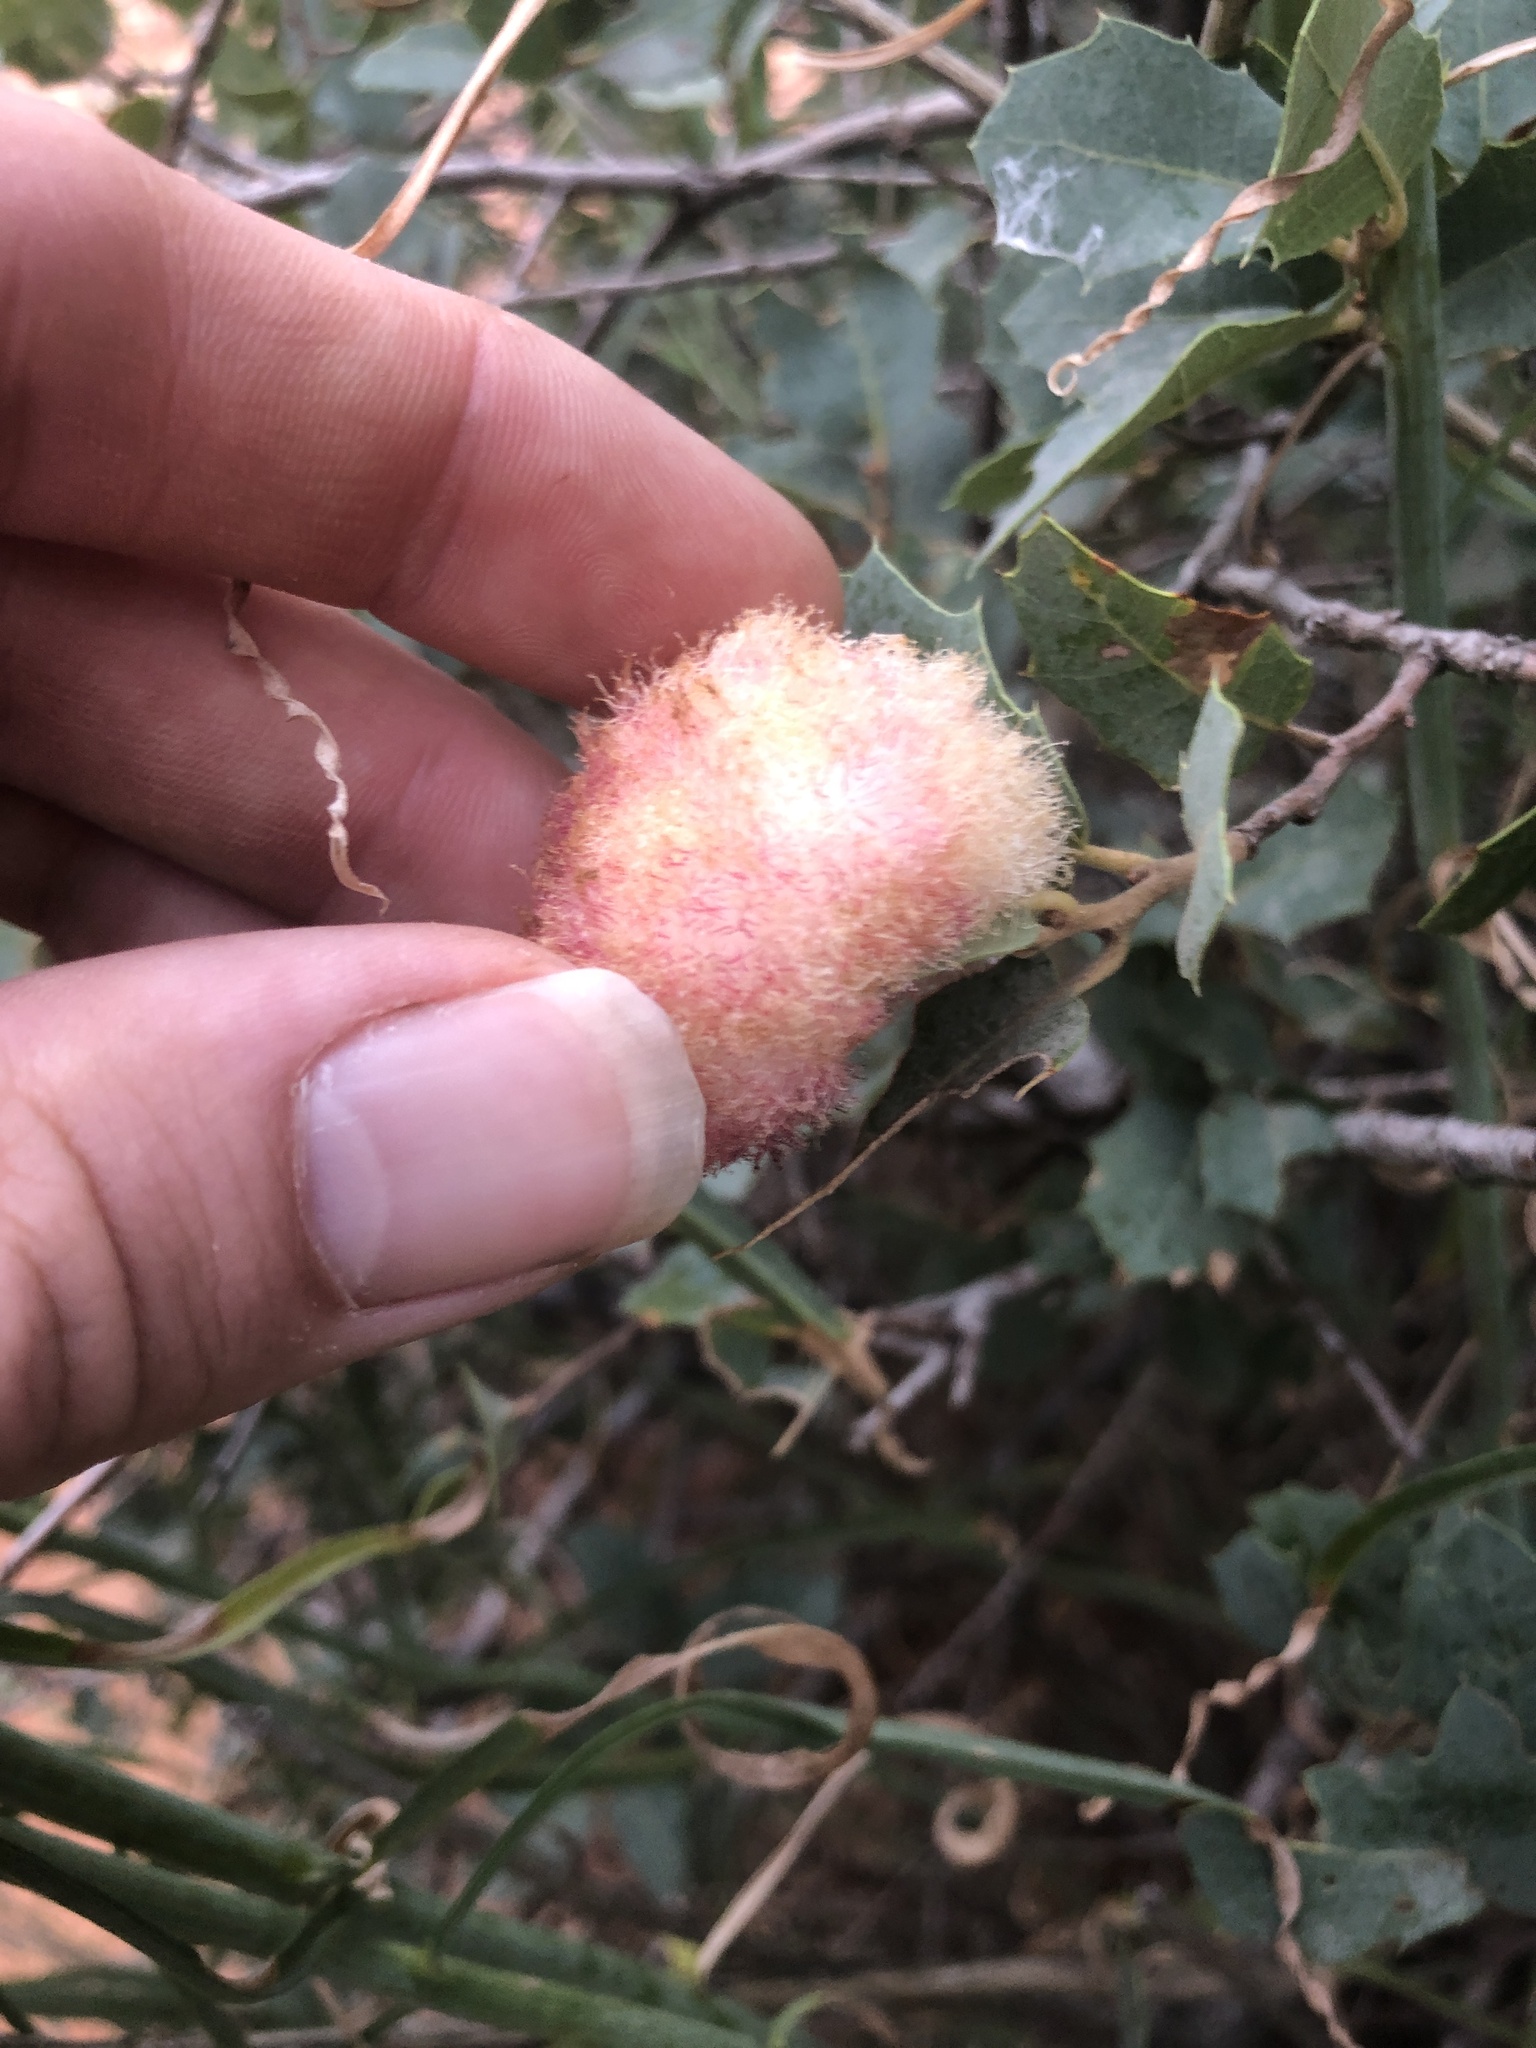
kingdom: Animalia
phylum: Arthropoda
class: Insecta
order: Hymenoptera
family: Cynipidae
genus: Andricus
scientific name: Andricus
